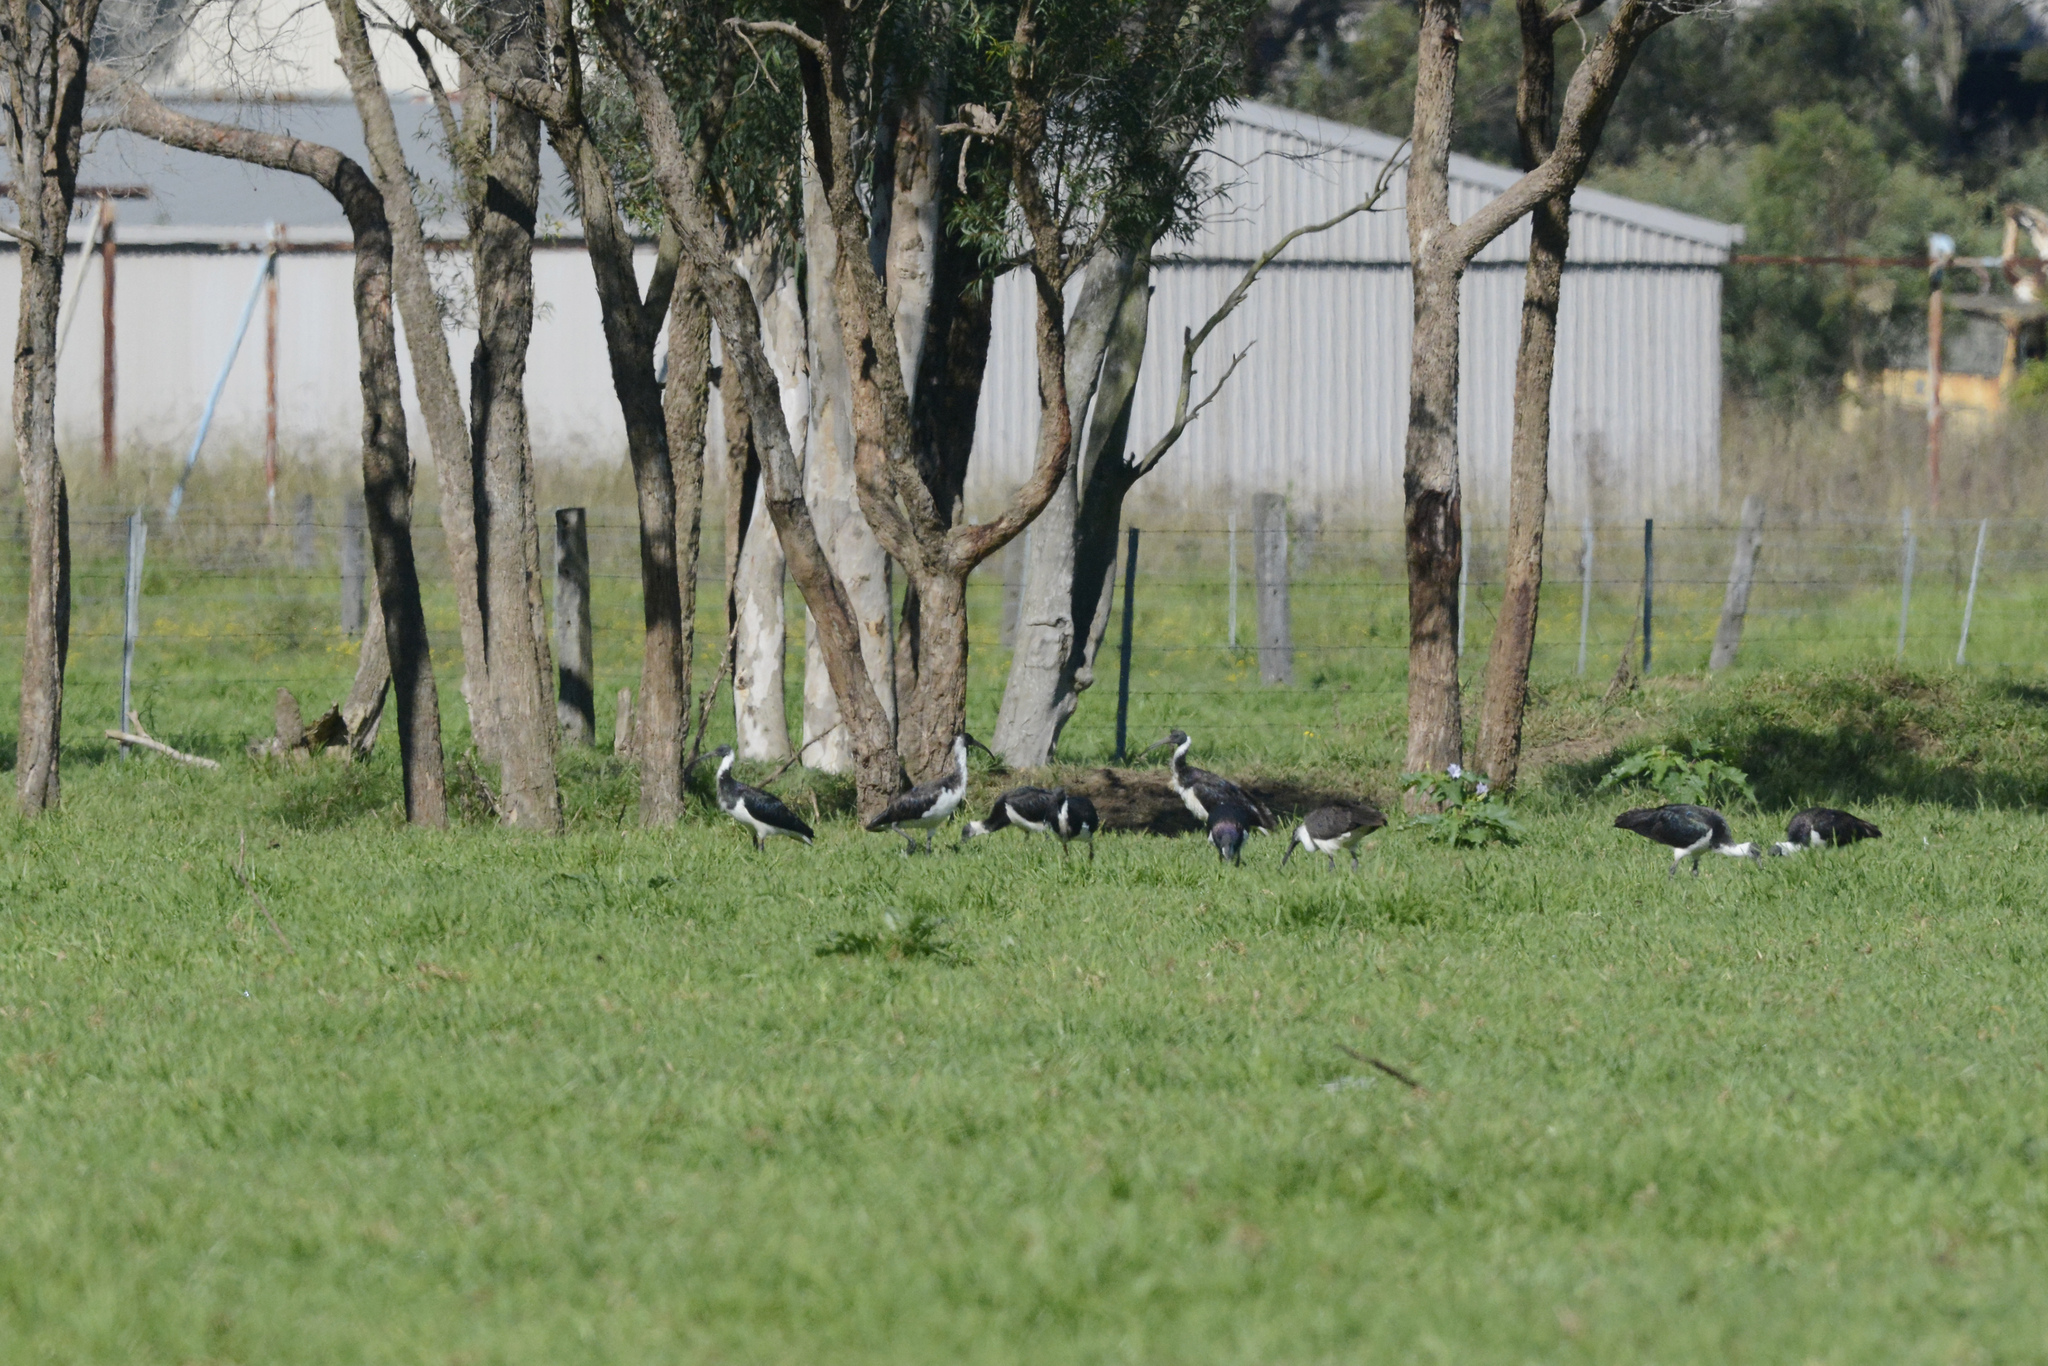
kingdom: Animalia
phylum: Chordata
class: Aves
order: Pelecaniformes
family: Threskiornithidae
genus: Threskiornis
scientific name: Threskiornis spinicollis
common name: Straw-necked ibis
